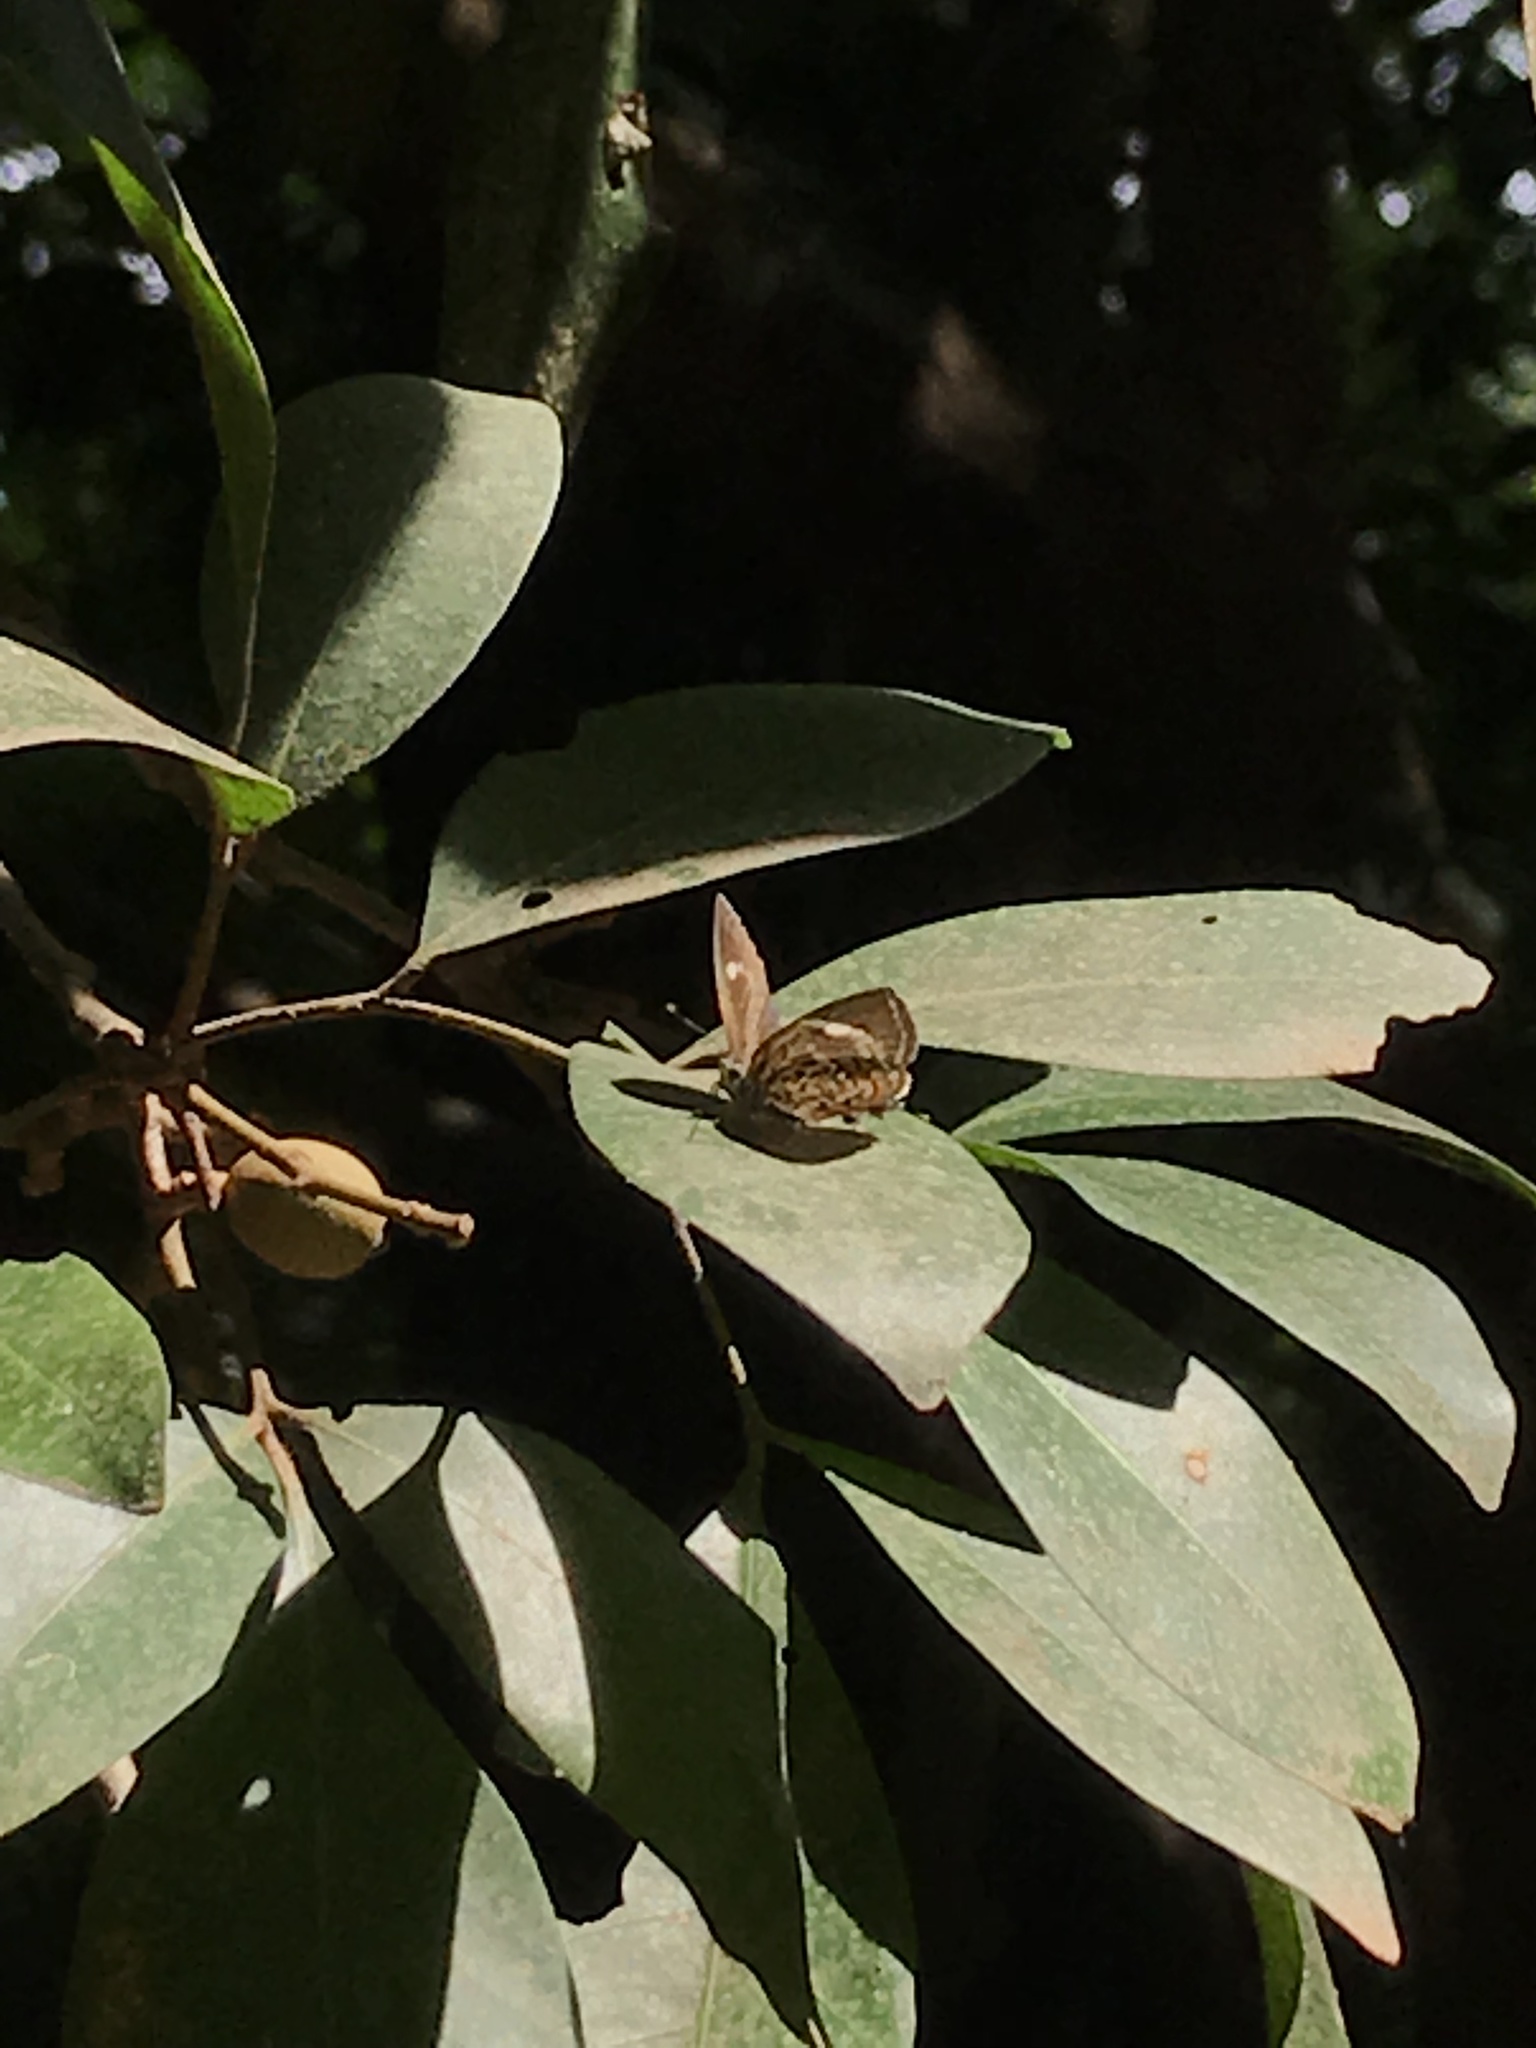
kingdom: Animalia
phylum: Arthropoda
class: Insecta
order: Lepidoptera
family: Lycaenidae
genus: Rathinda
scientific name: Rathinda amor
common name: Monkey puzzle
